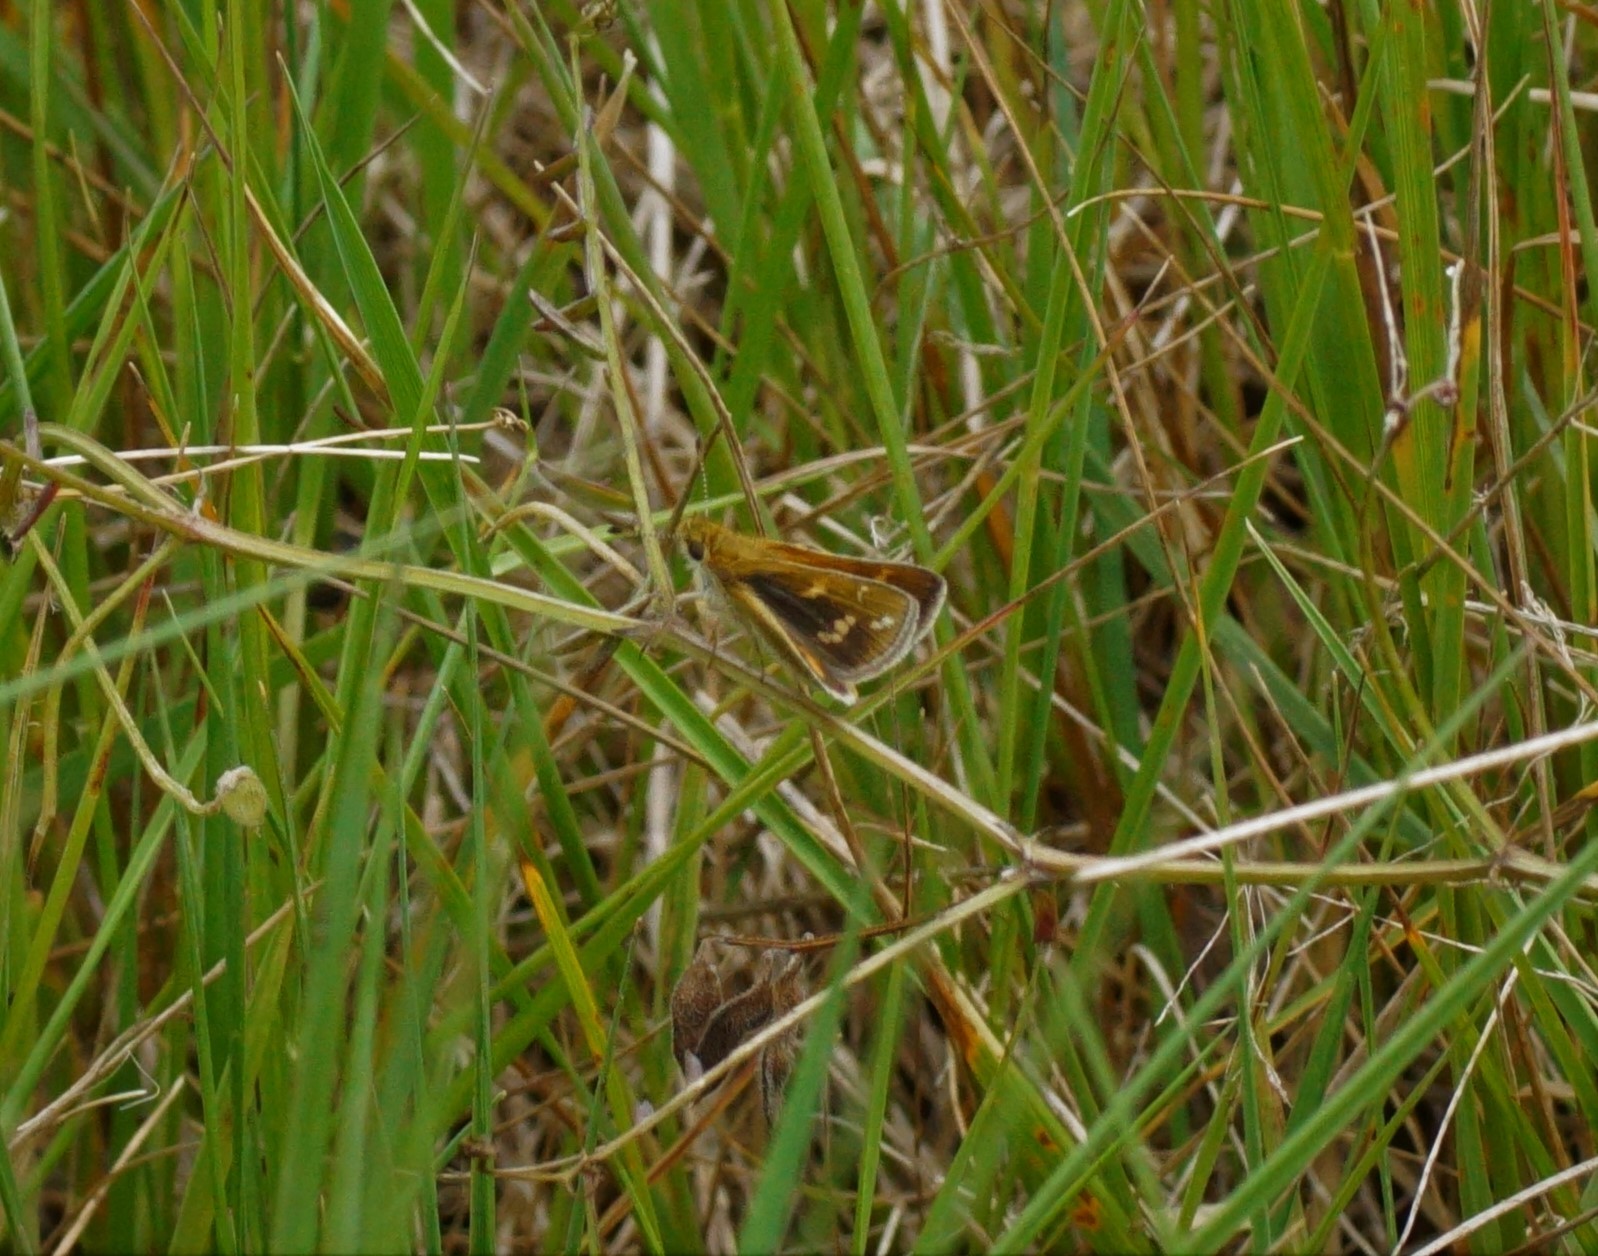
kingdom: Animalia
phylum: Arthropoda
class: Insecta
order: Lepidoptera
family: Hesperiidae
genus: Taractrocera
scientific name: Taractrocera papyria
